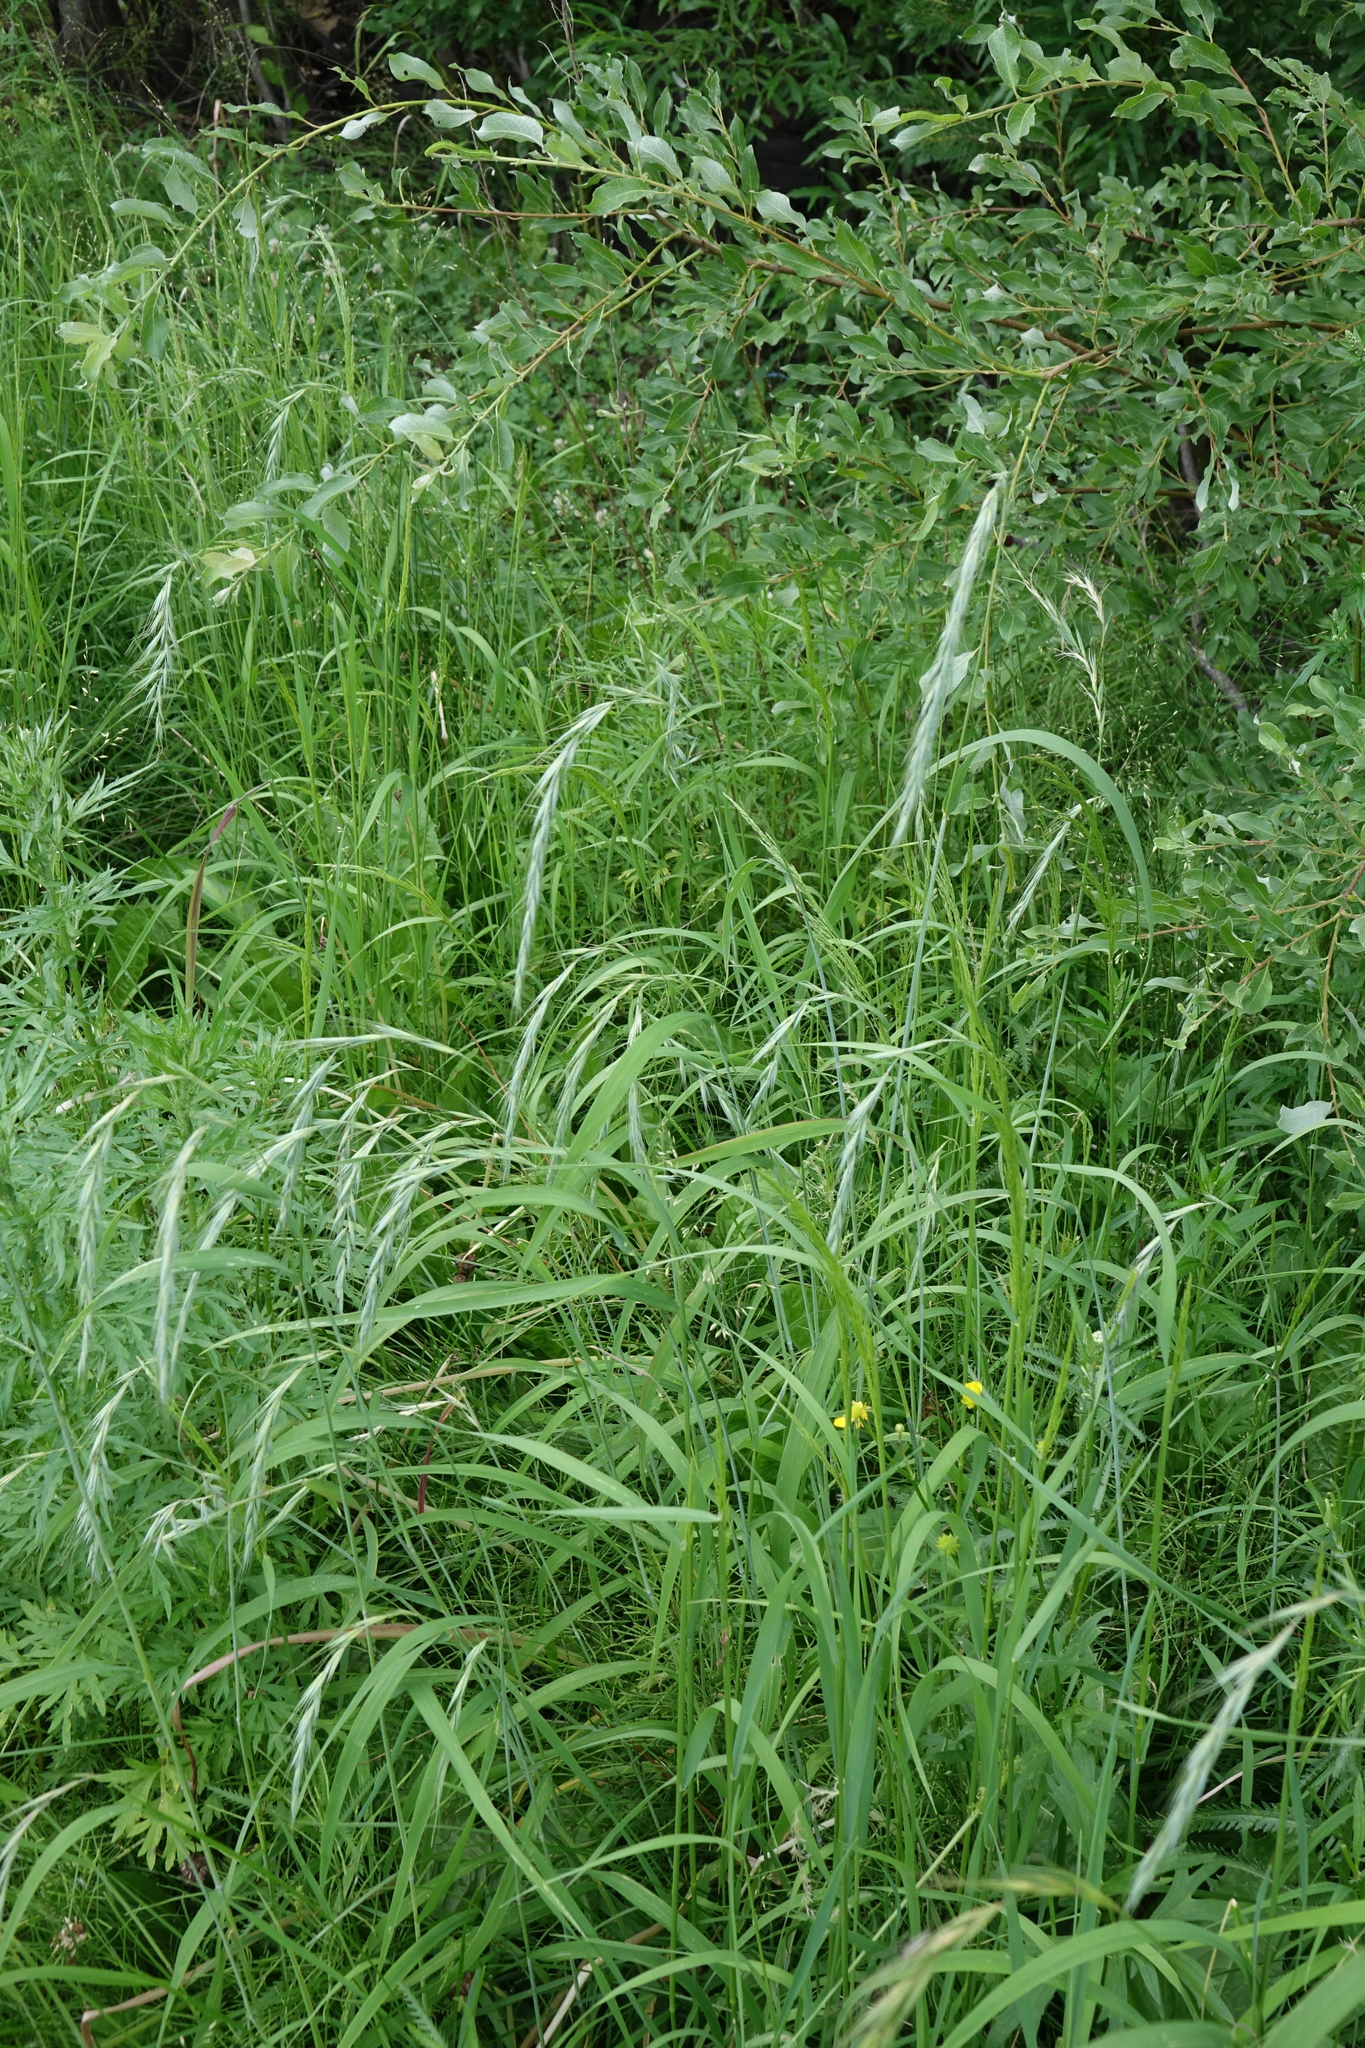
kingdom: Plantae
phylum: Tracheophyta
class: Liliopsida
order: Poales
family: Poaceae
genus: Elymus
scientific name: Elymus sibiricus
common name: Siberian wildrye
